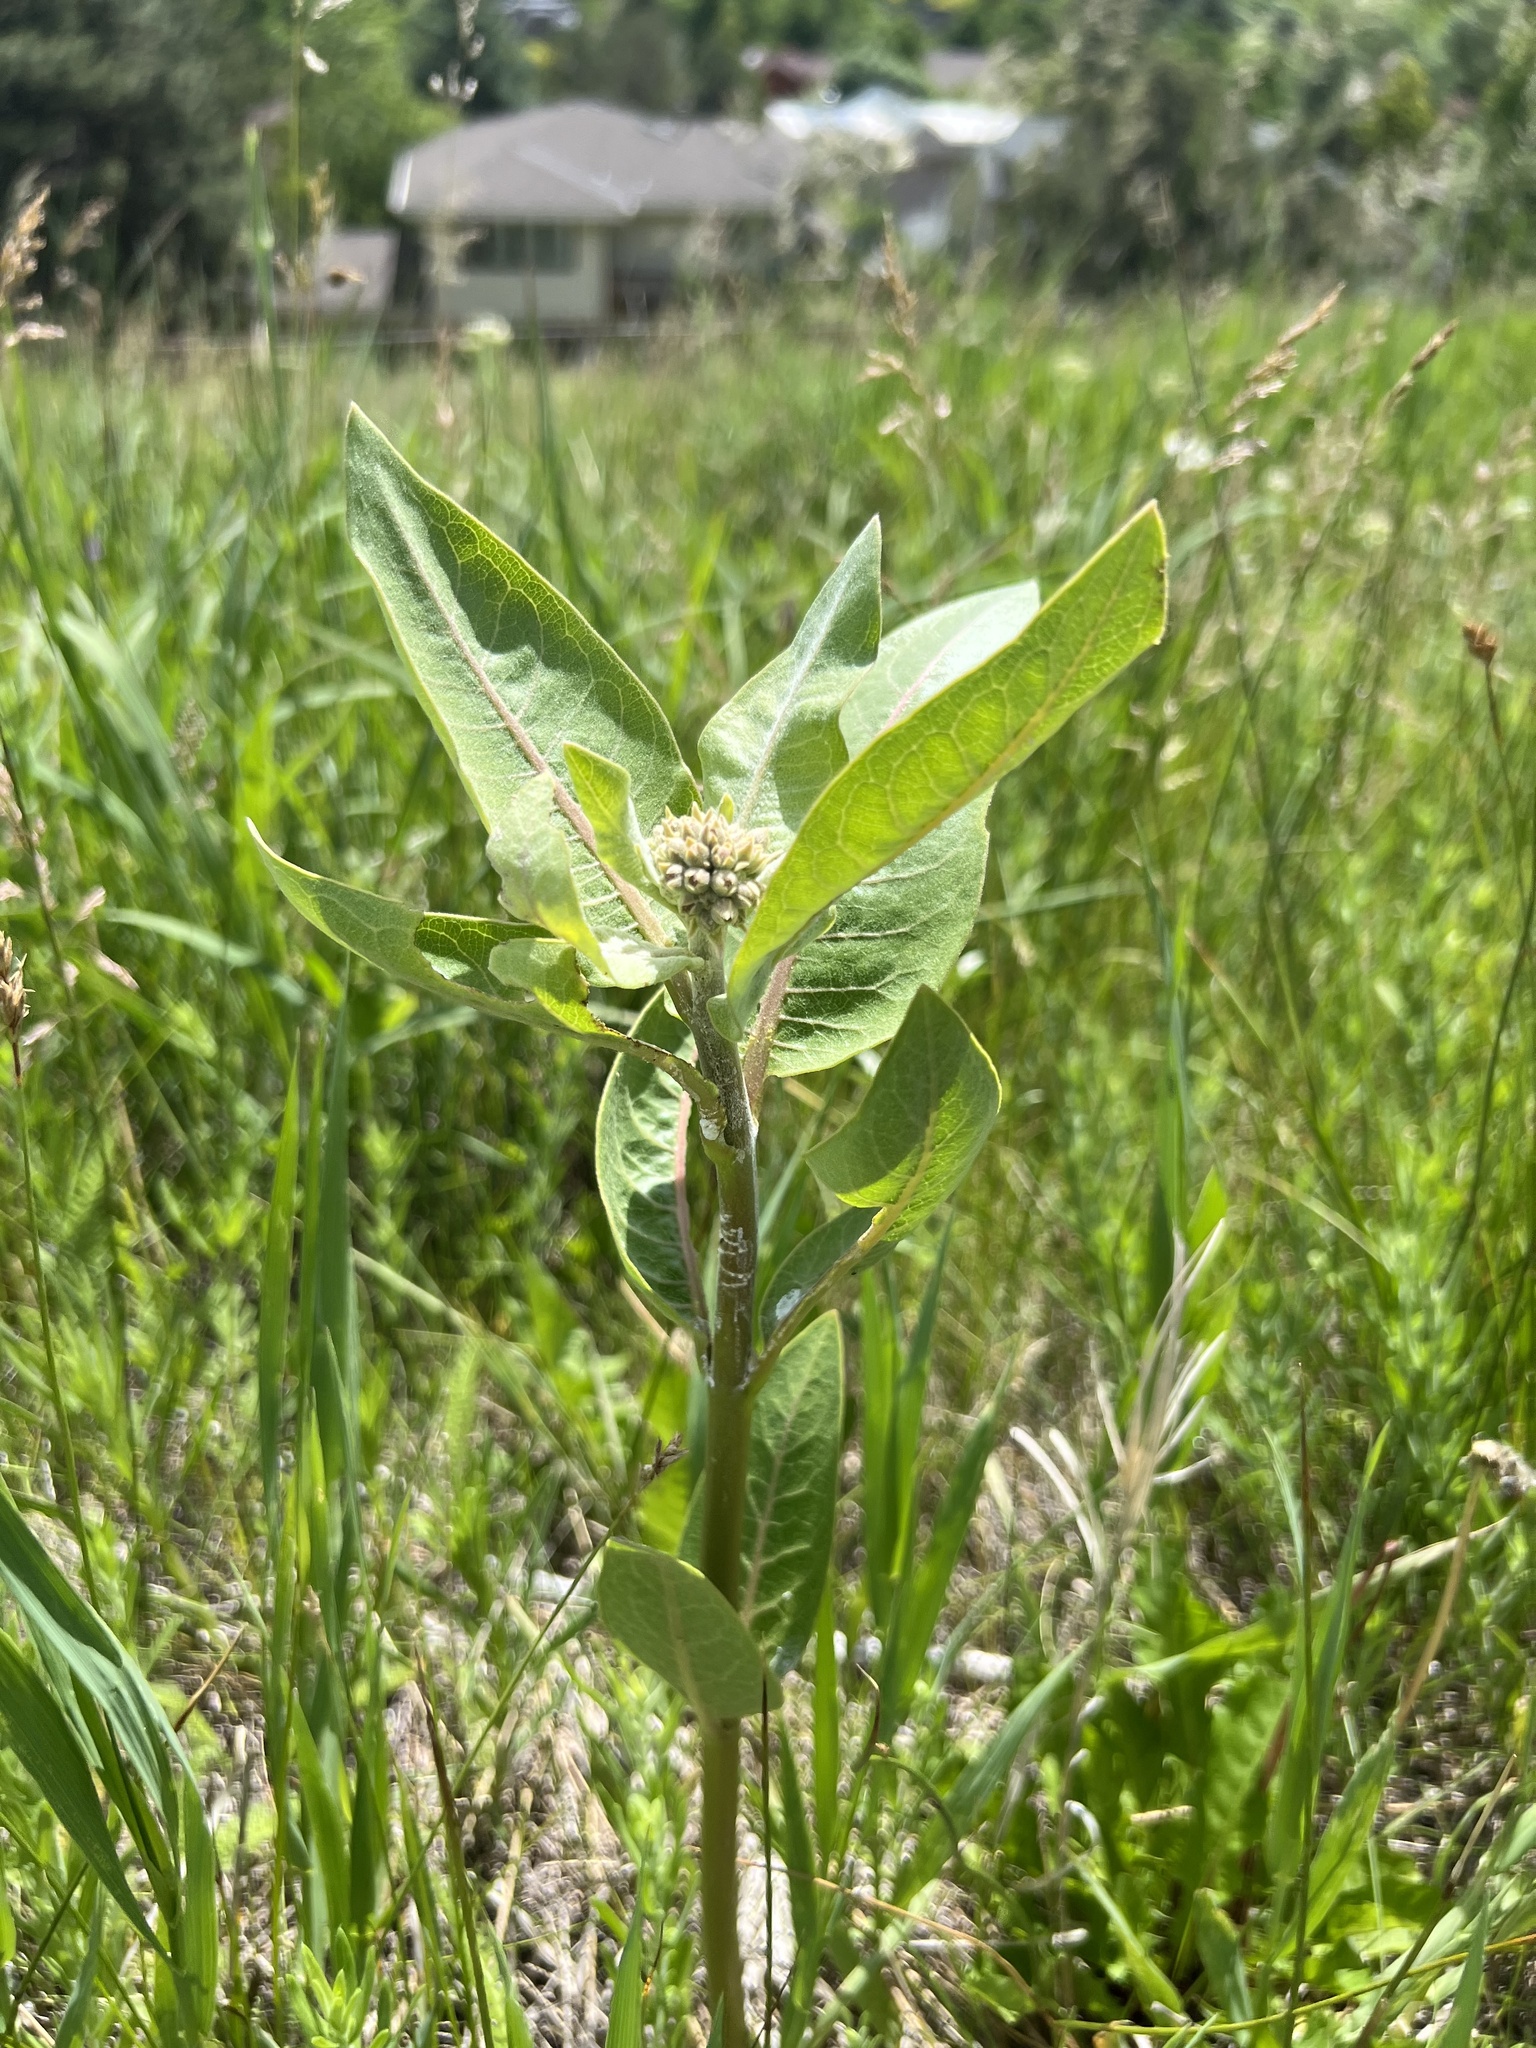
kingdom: Plantae
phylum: Tracheophyta
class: Magnoliopsida
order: Gentianales
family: Apocynaceae
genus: Asclepias
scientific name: Asclepias speciosa
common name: Showy milkweed
